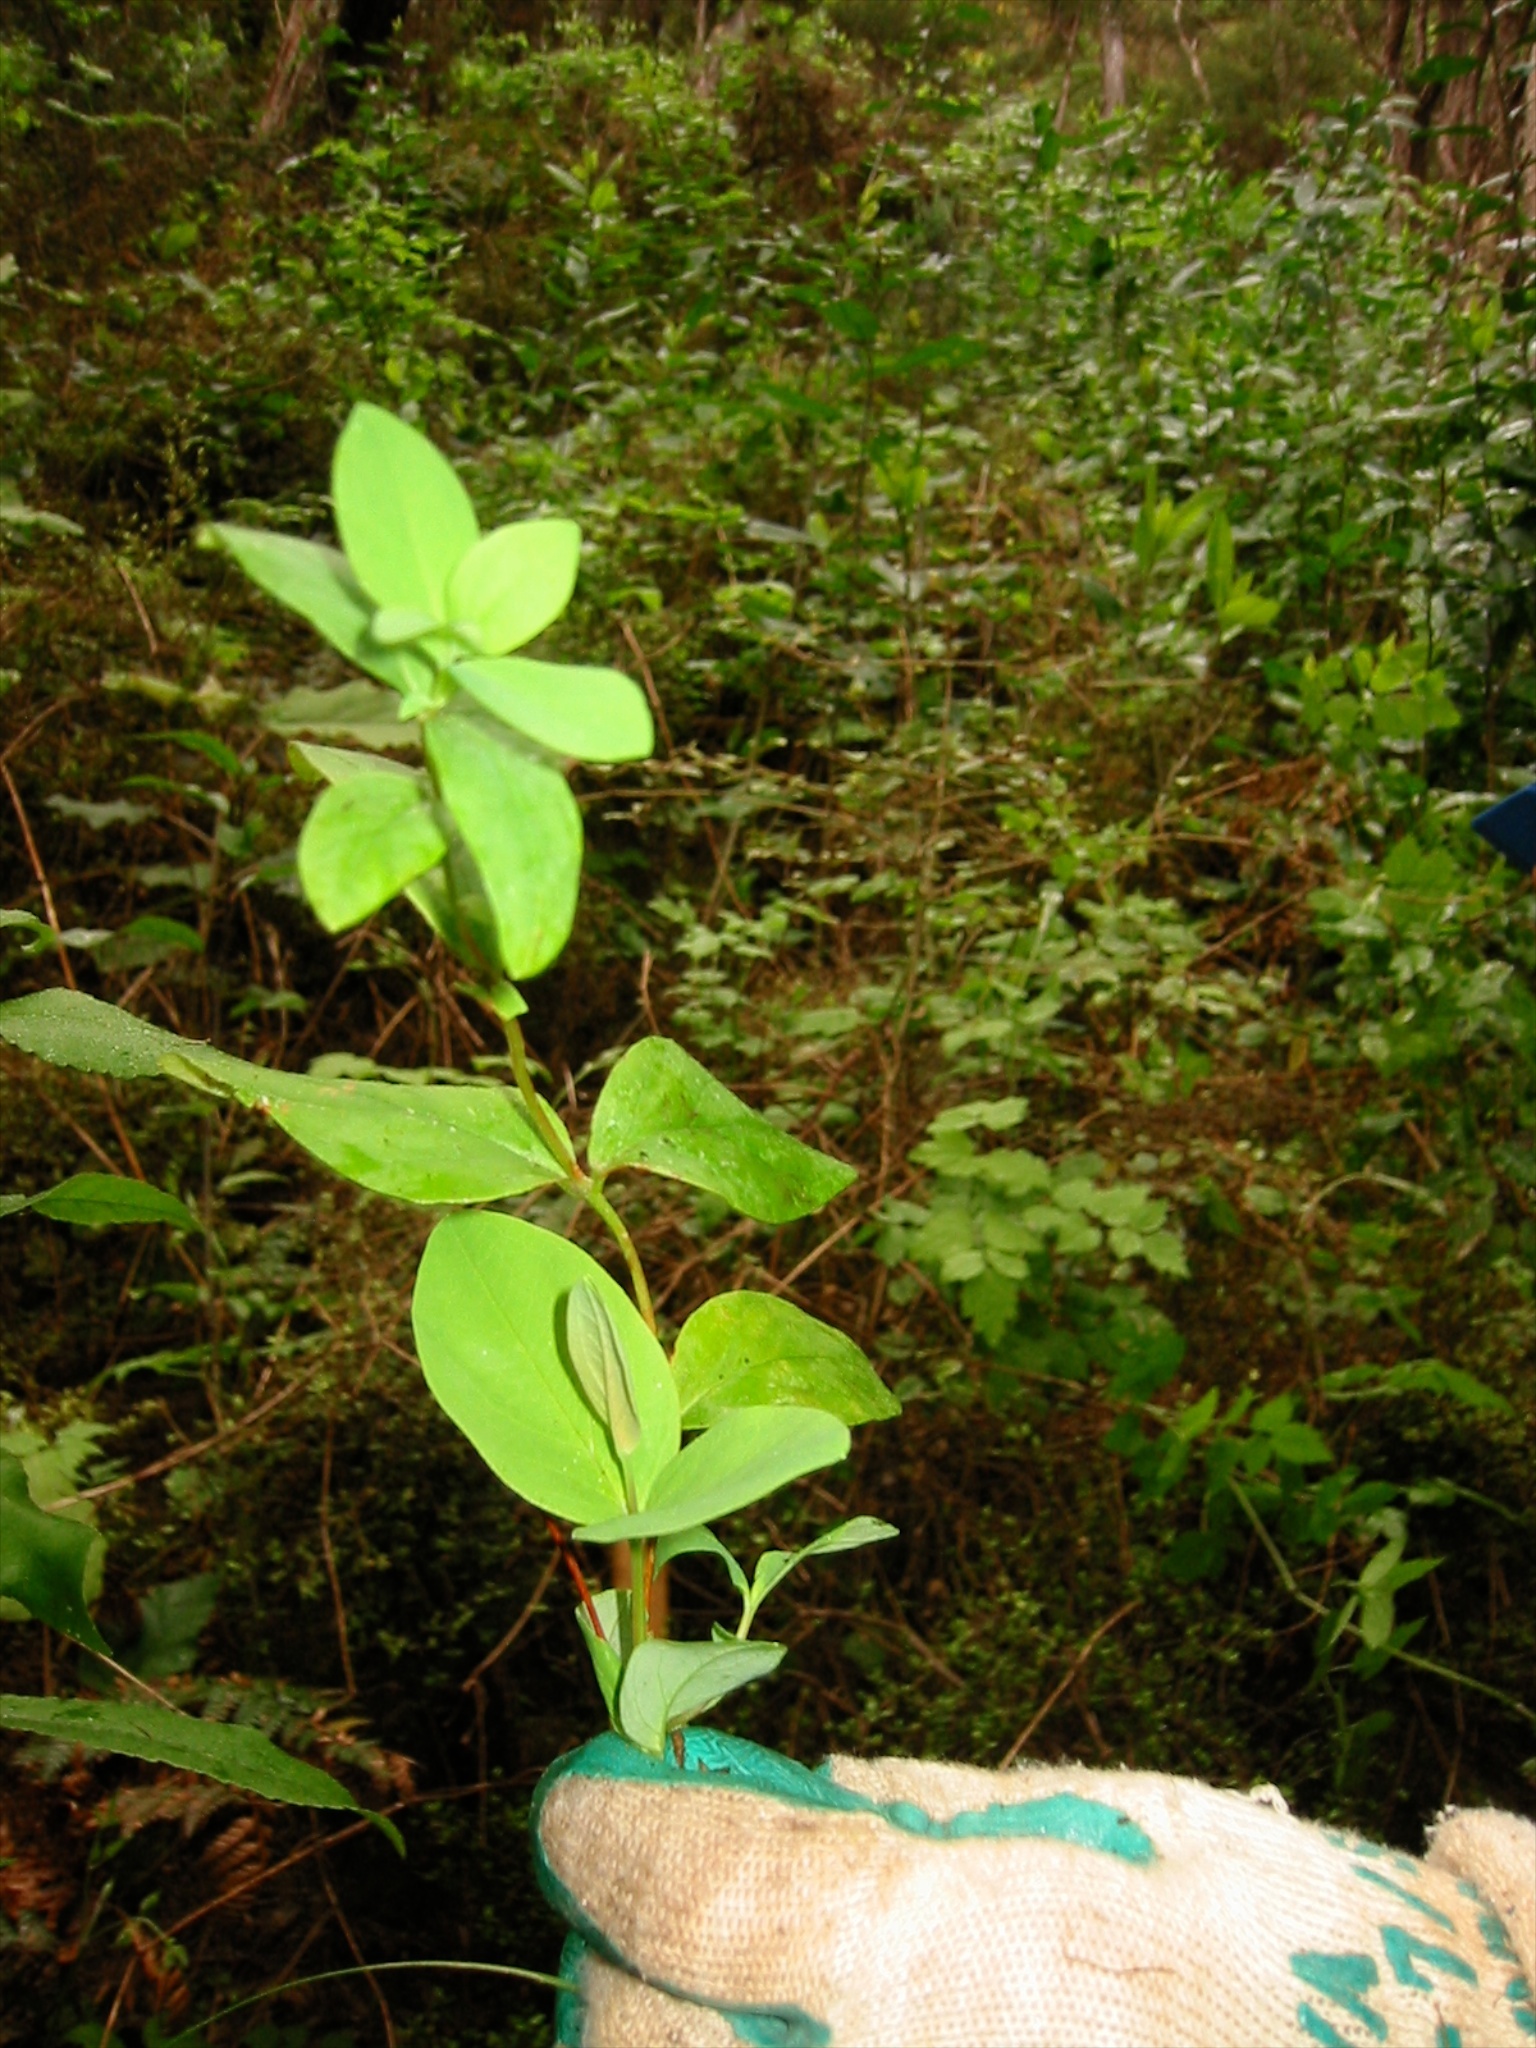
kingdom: Plantae
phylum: Tracheophyta
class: Magnoliopsida
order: Malpighiales
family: Hypericaceae
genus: Hypericum
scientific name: Hypericum androsaemum
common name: Sweet-amber
